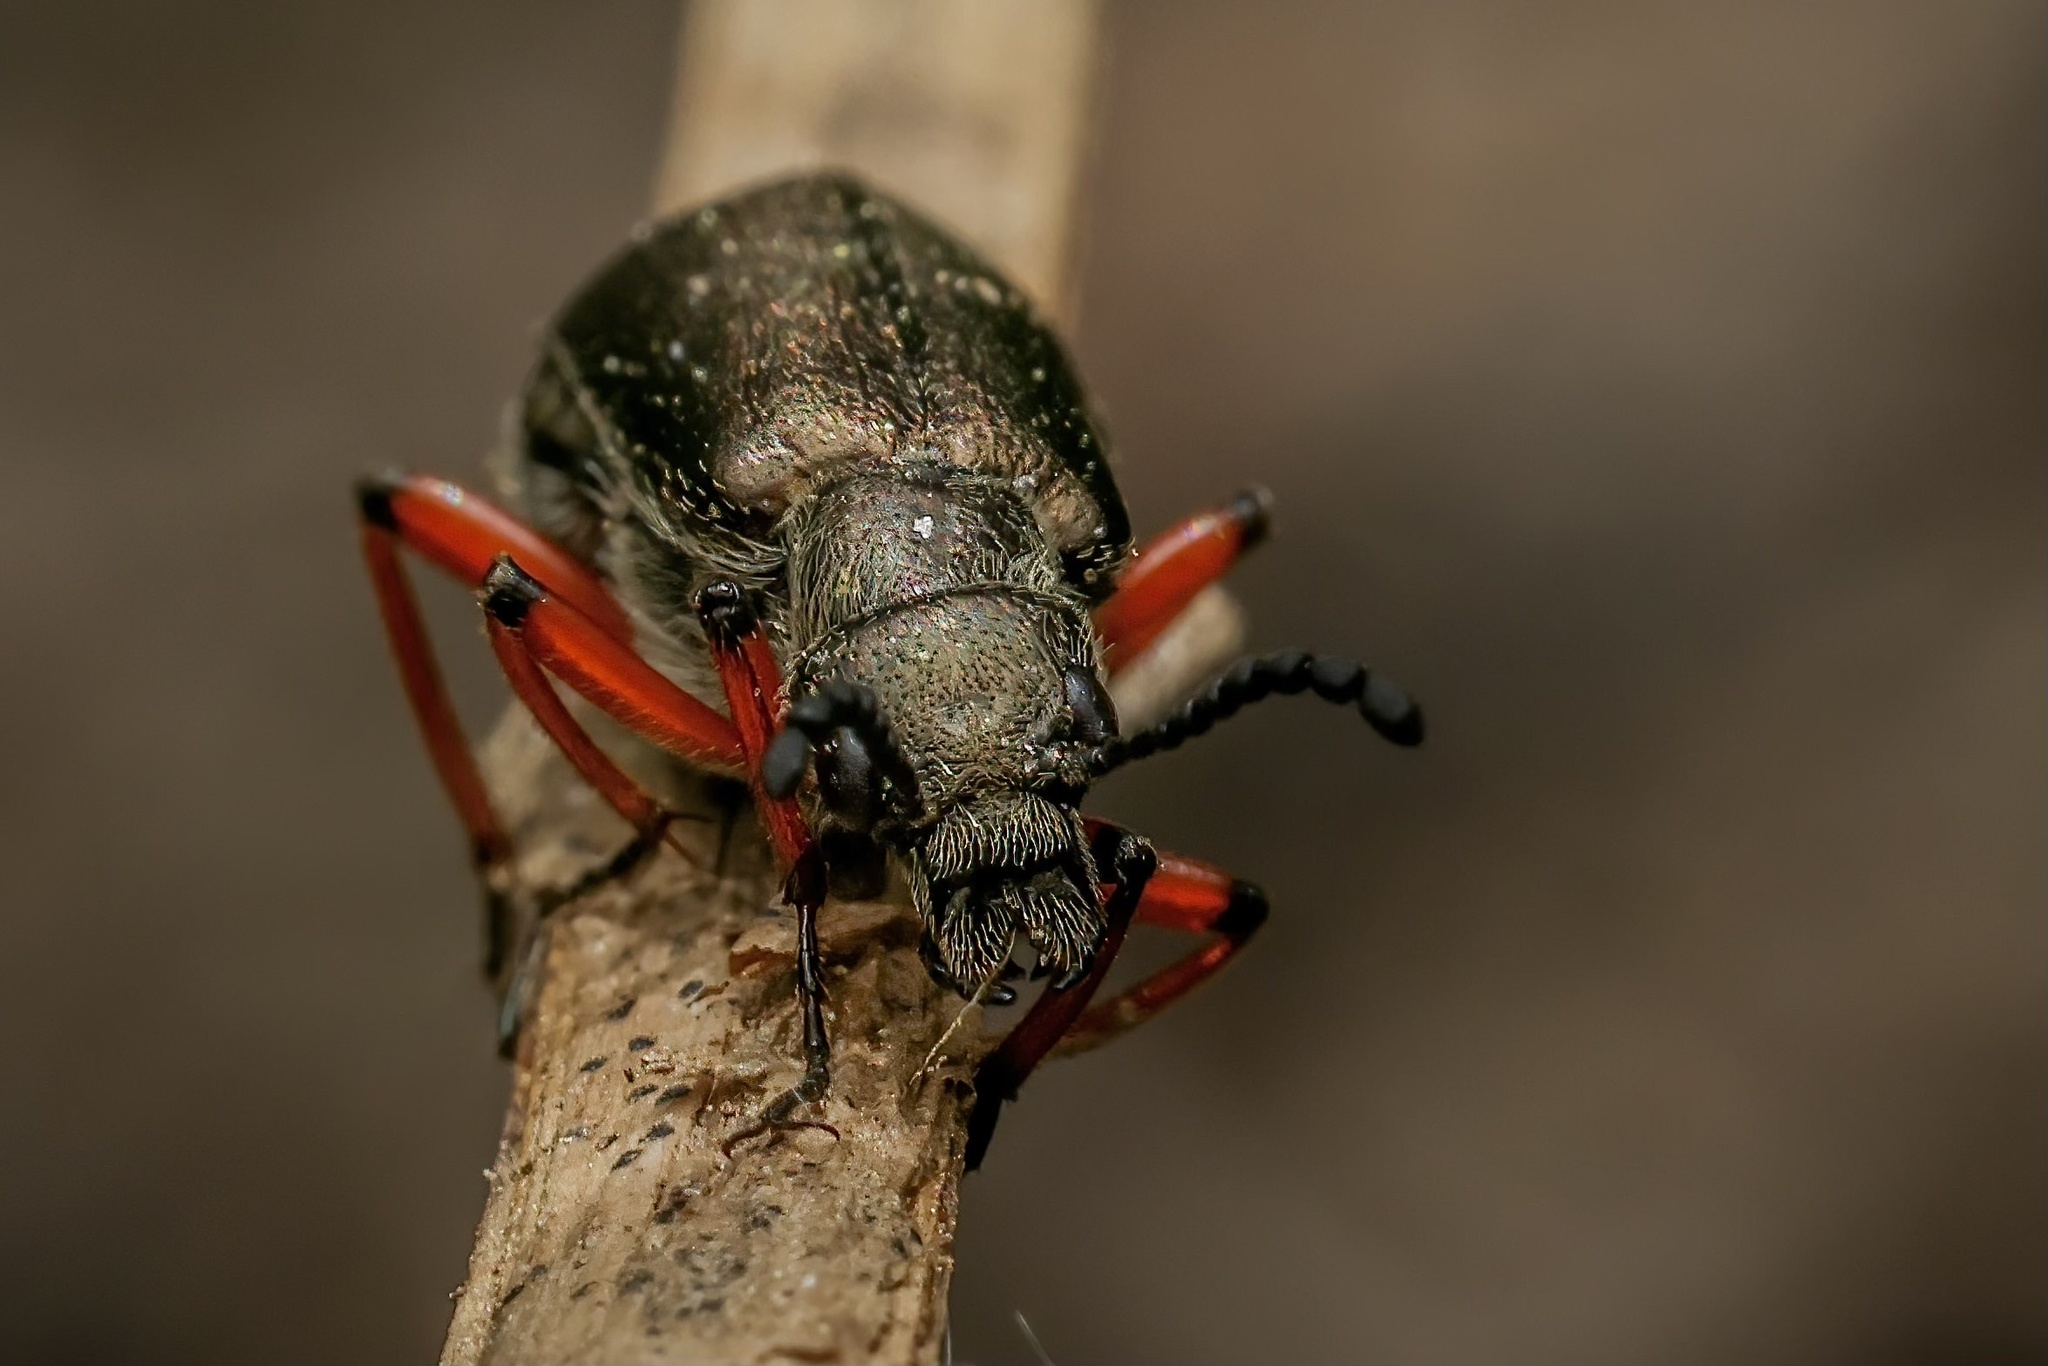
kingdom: Animalia
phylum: Arthropoda
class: Insecta
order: Coleoptera
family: Meloidae
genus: Lytta
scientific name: Lytta aenea
